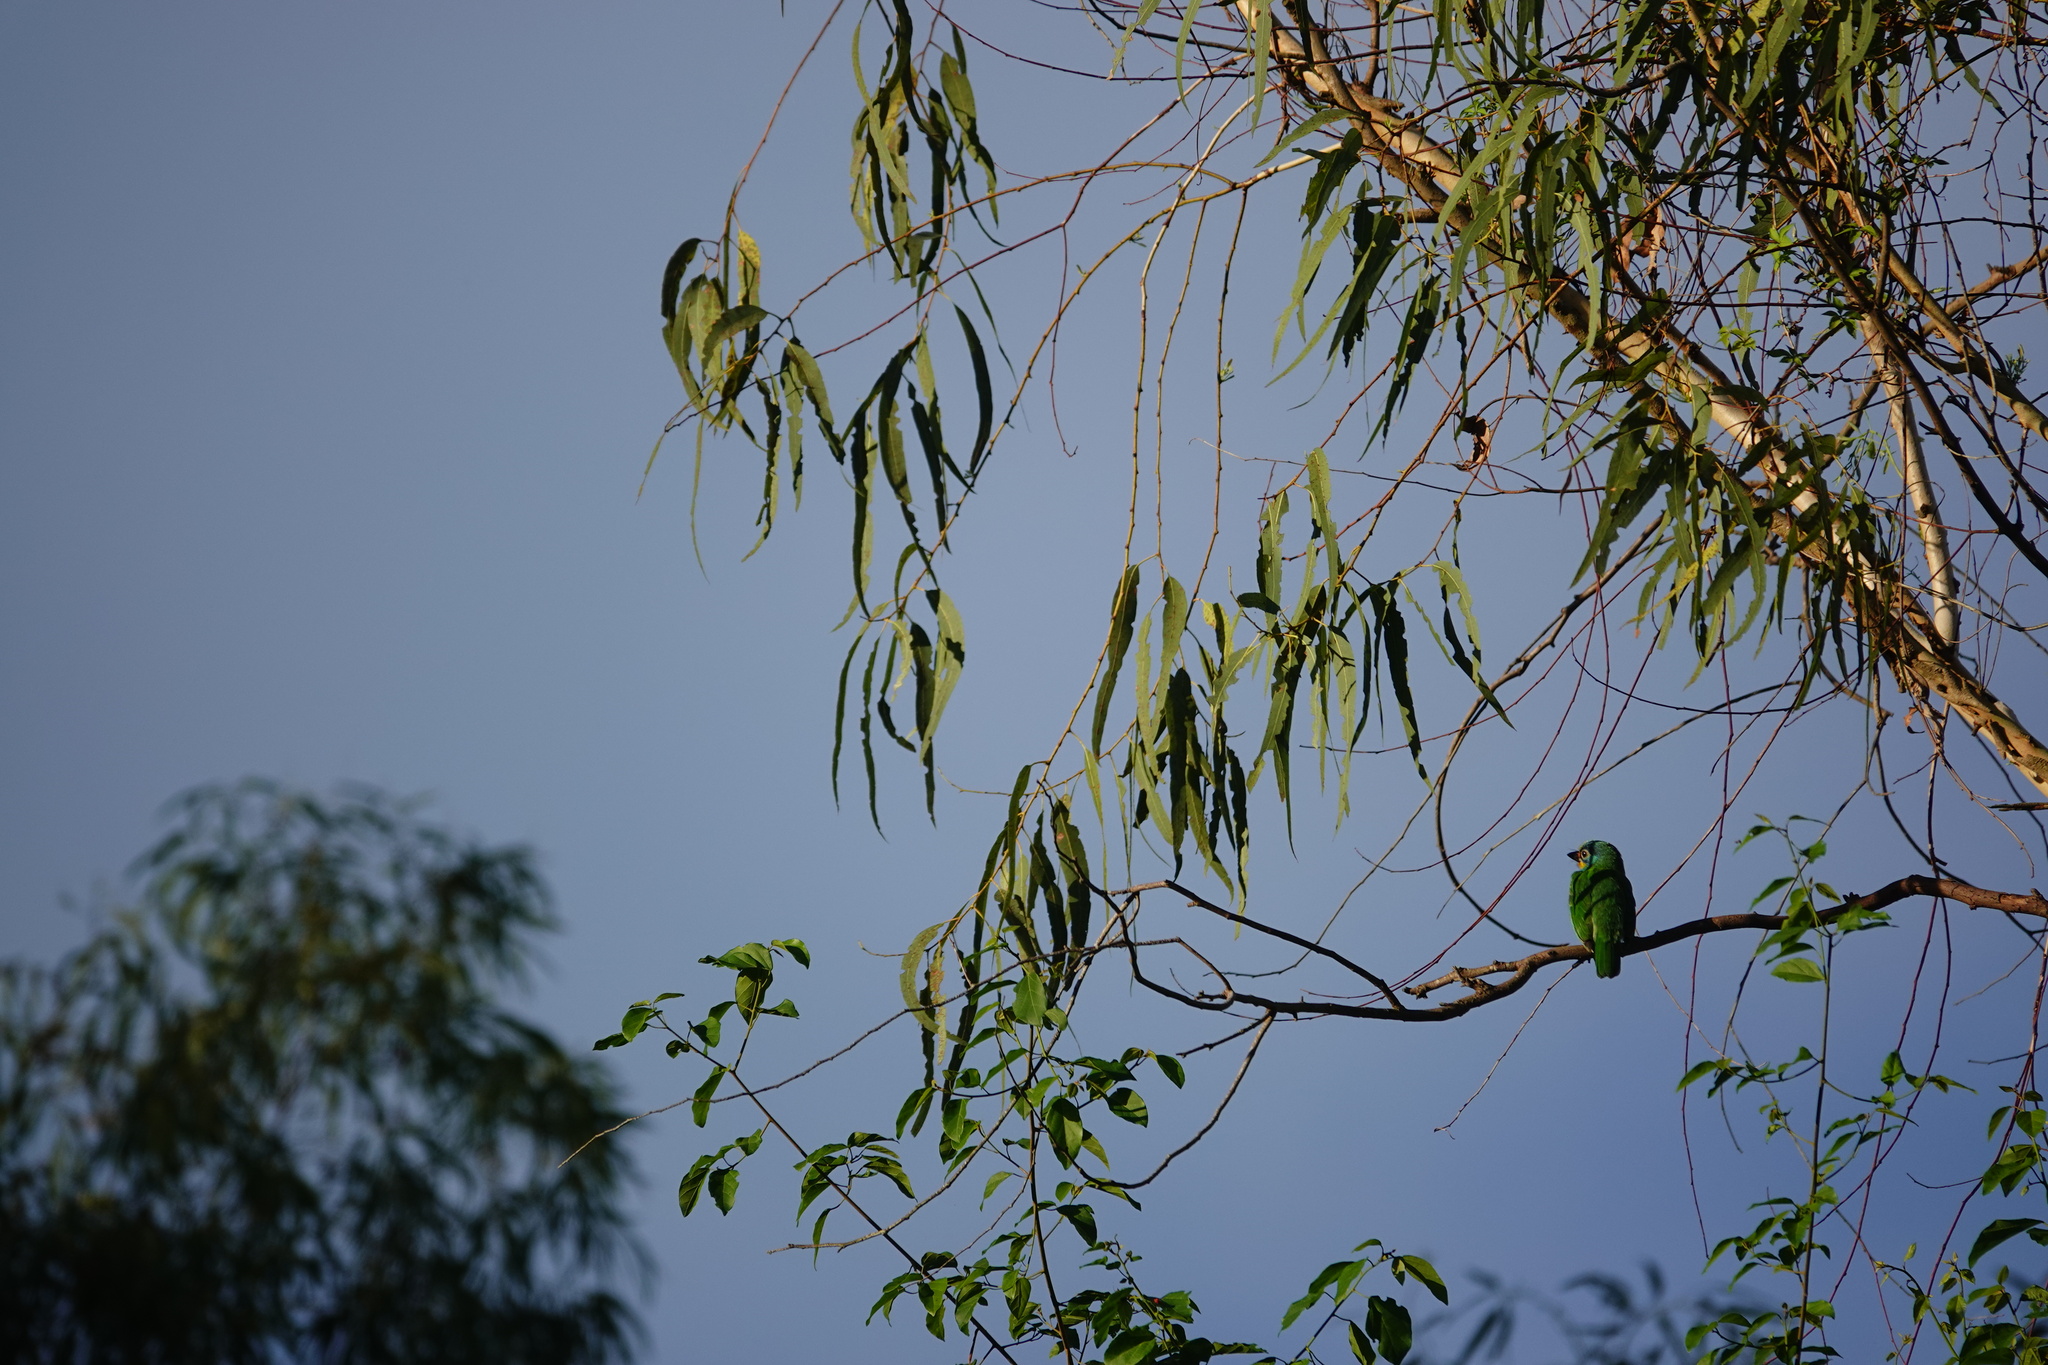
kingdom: Animalia
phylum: Chordata
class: Aves
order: Piciformes
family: Megalaimidae
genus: Psilopogon
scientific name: Psilopogon nuchalis
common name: Taiwan barbet
